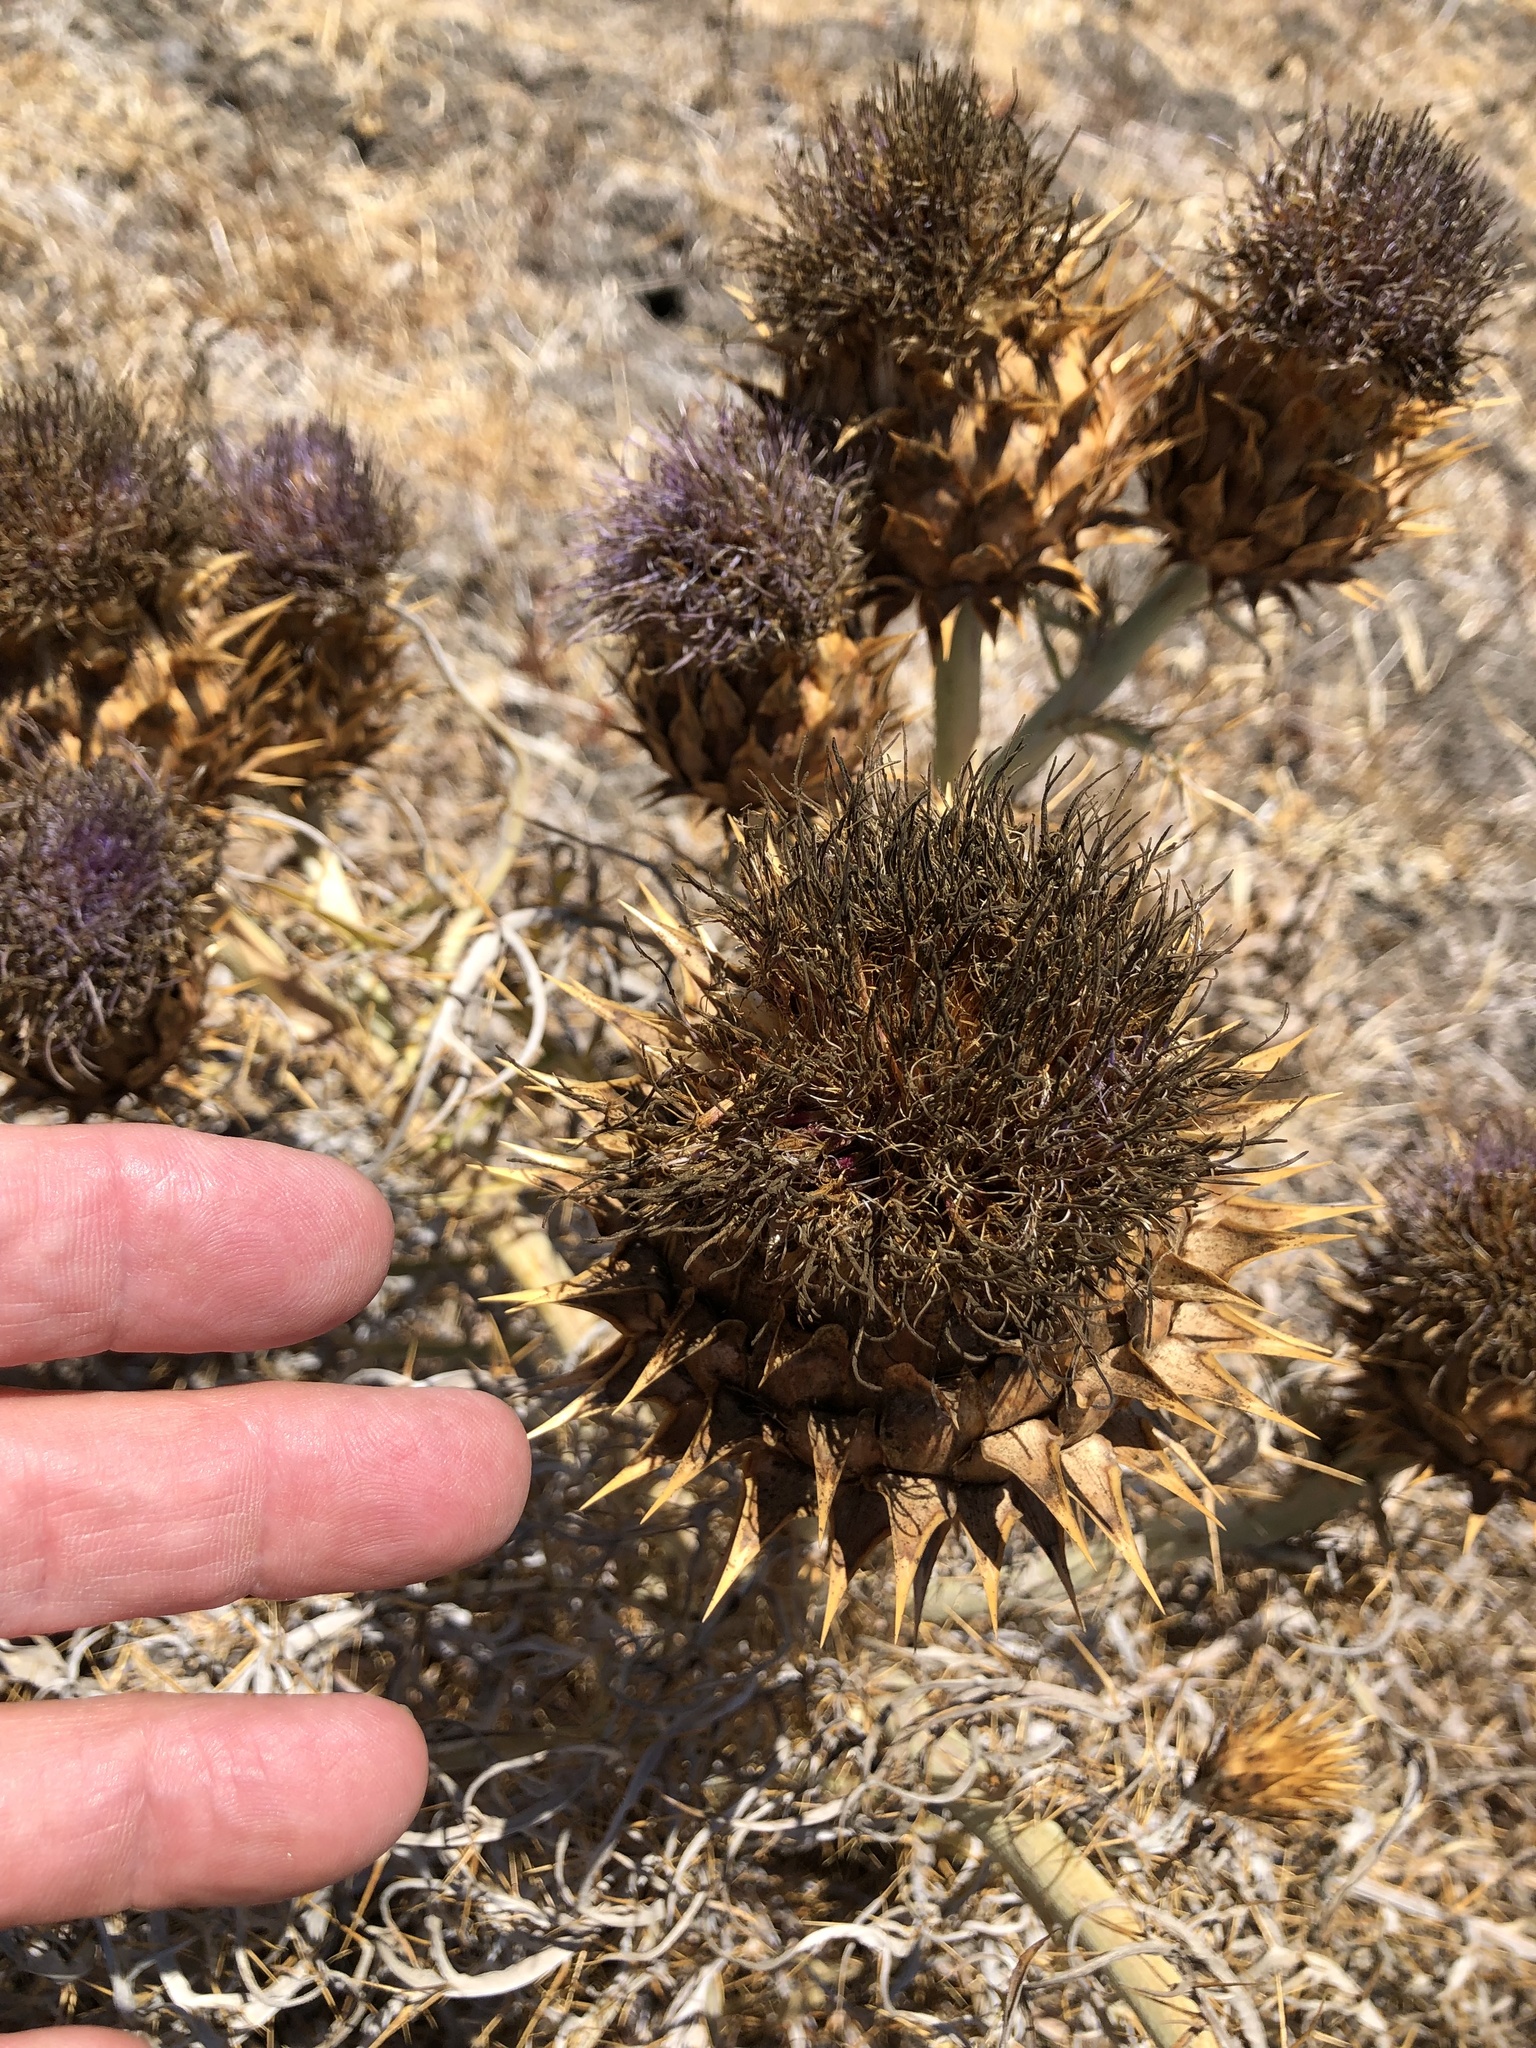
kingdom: Plantae
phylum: Tracheophyta
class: Magnoliopsida
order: Asterales
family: Asteraceae
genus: Cynara
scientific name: Cynara cardunculus
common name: Globe artichoke
